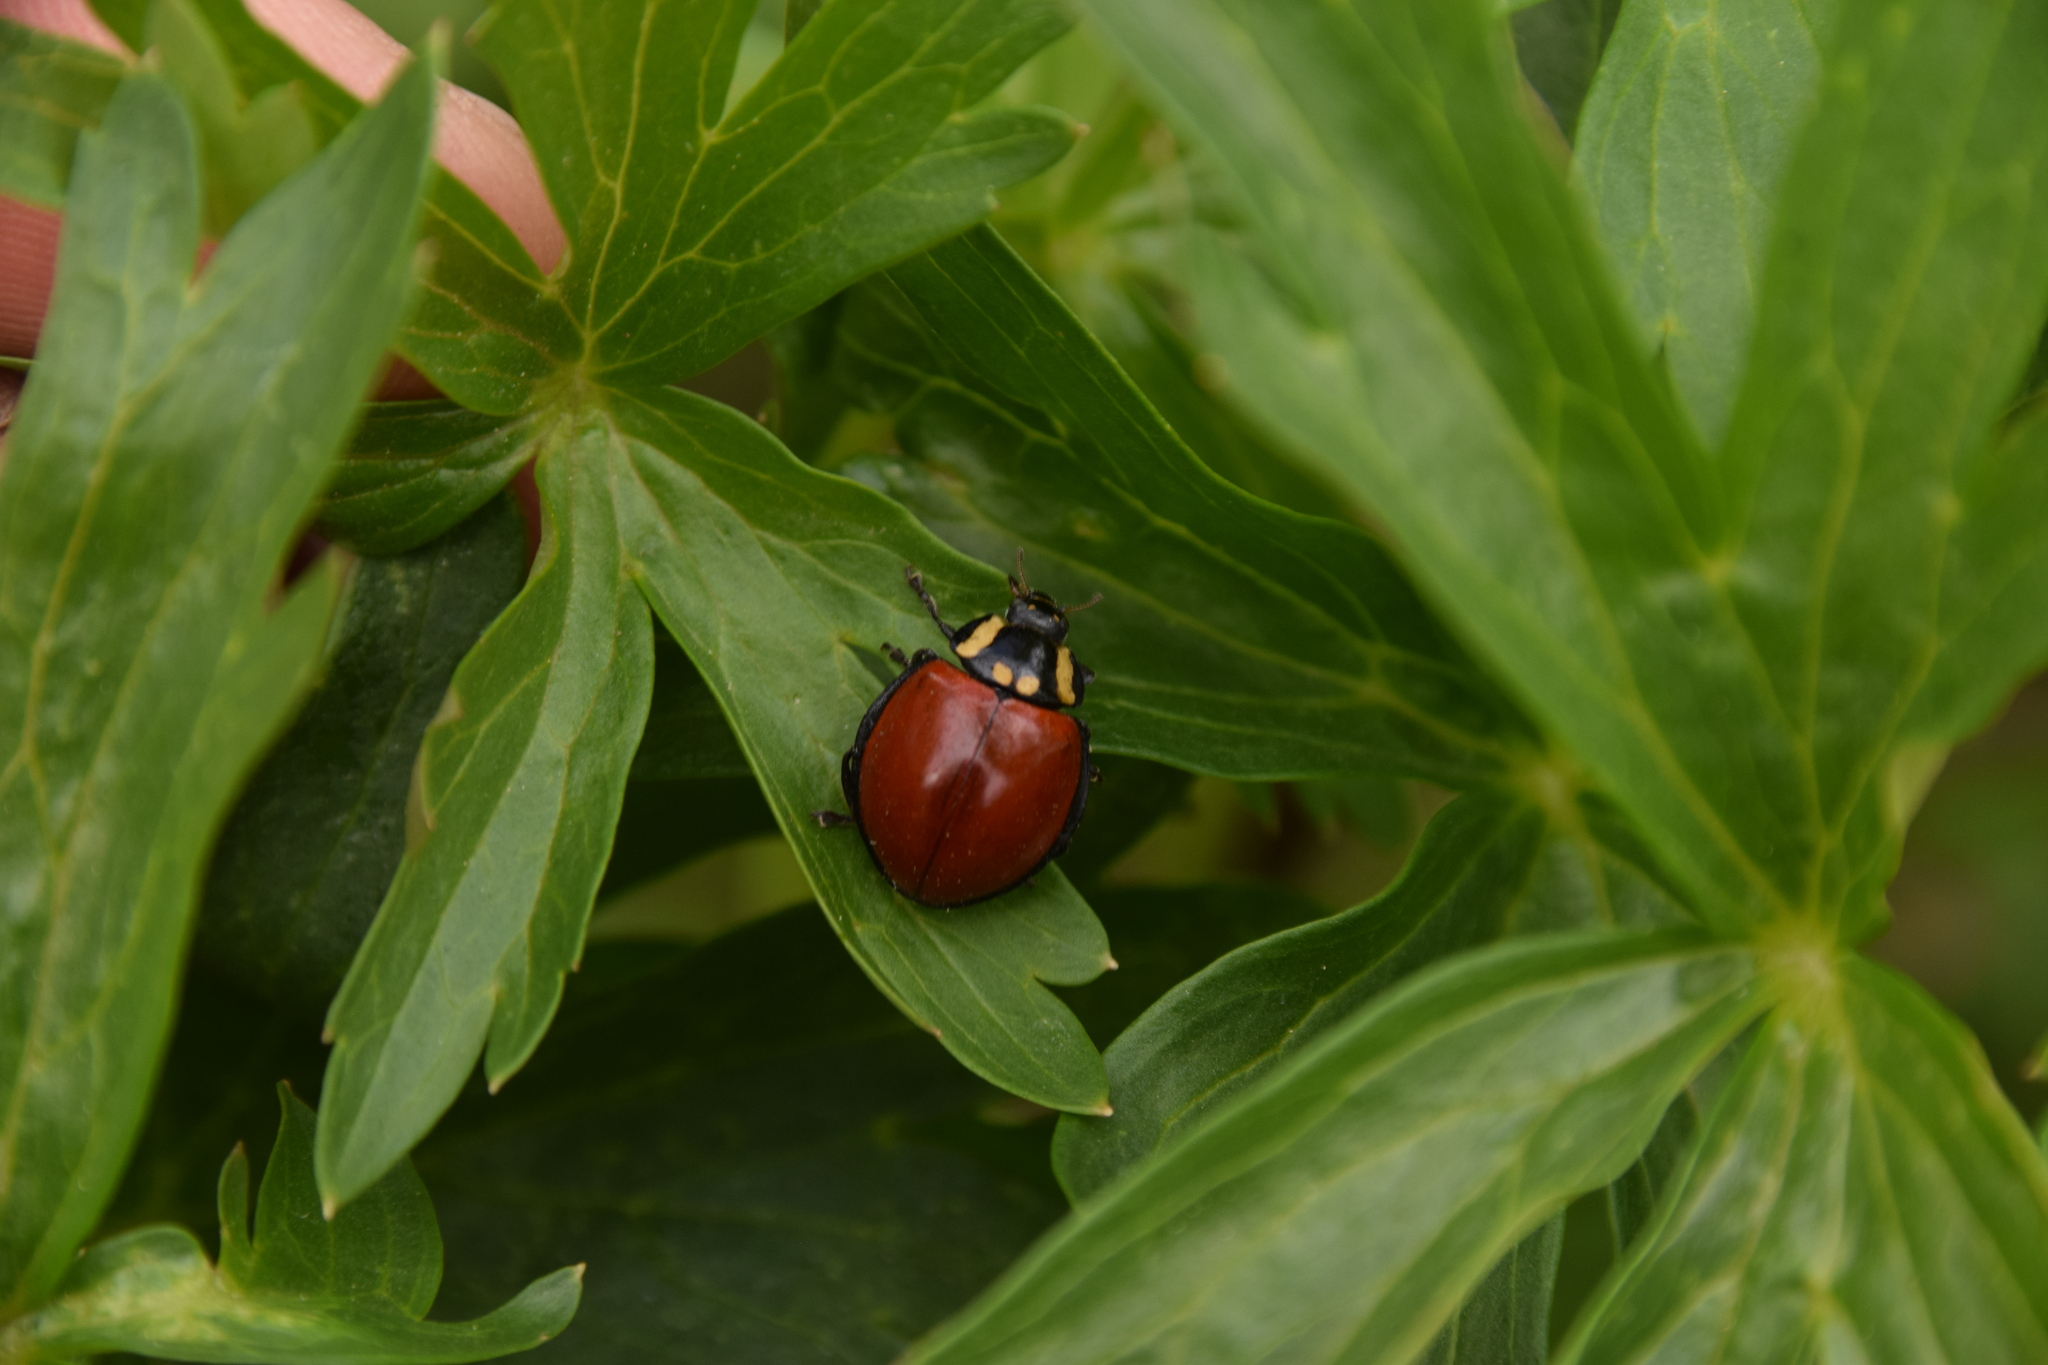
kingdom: Animalia
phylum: Arthropoda
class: Insecta
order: Coleoptera
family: Coccinellidae
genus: Anatis
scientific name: Anatis lecontei
